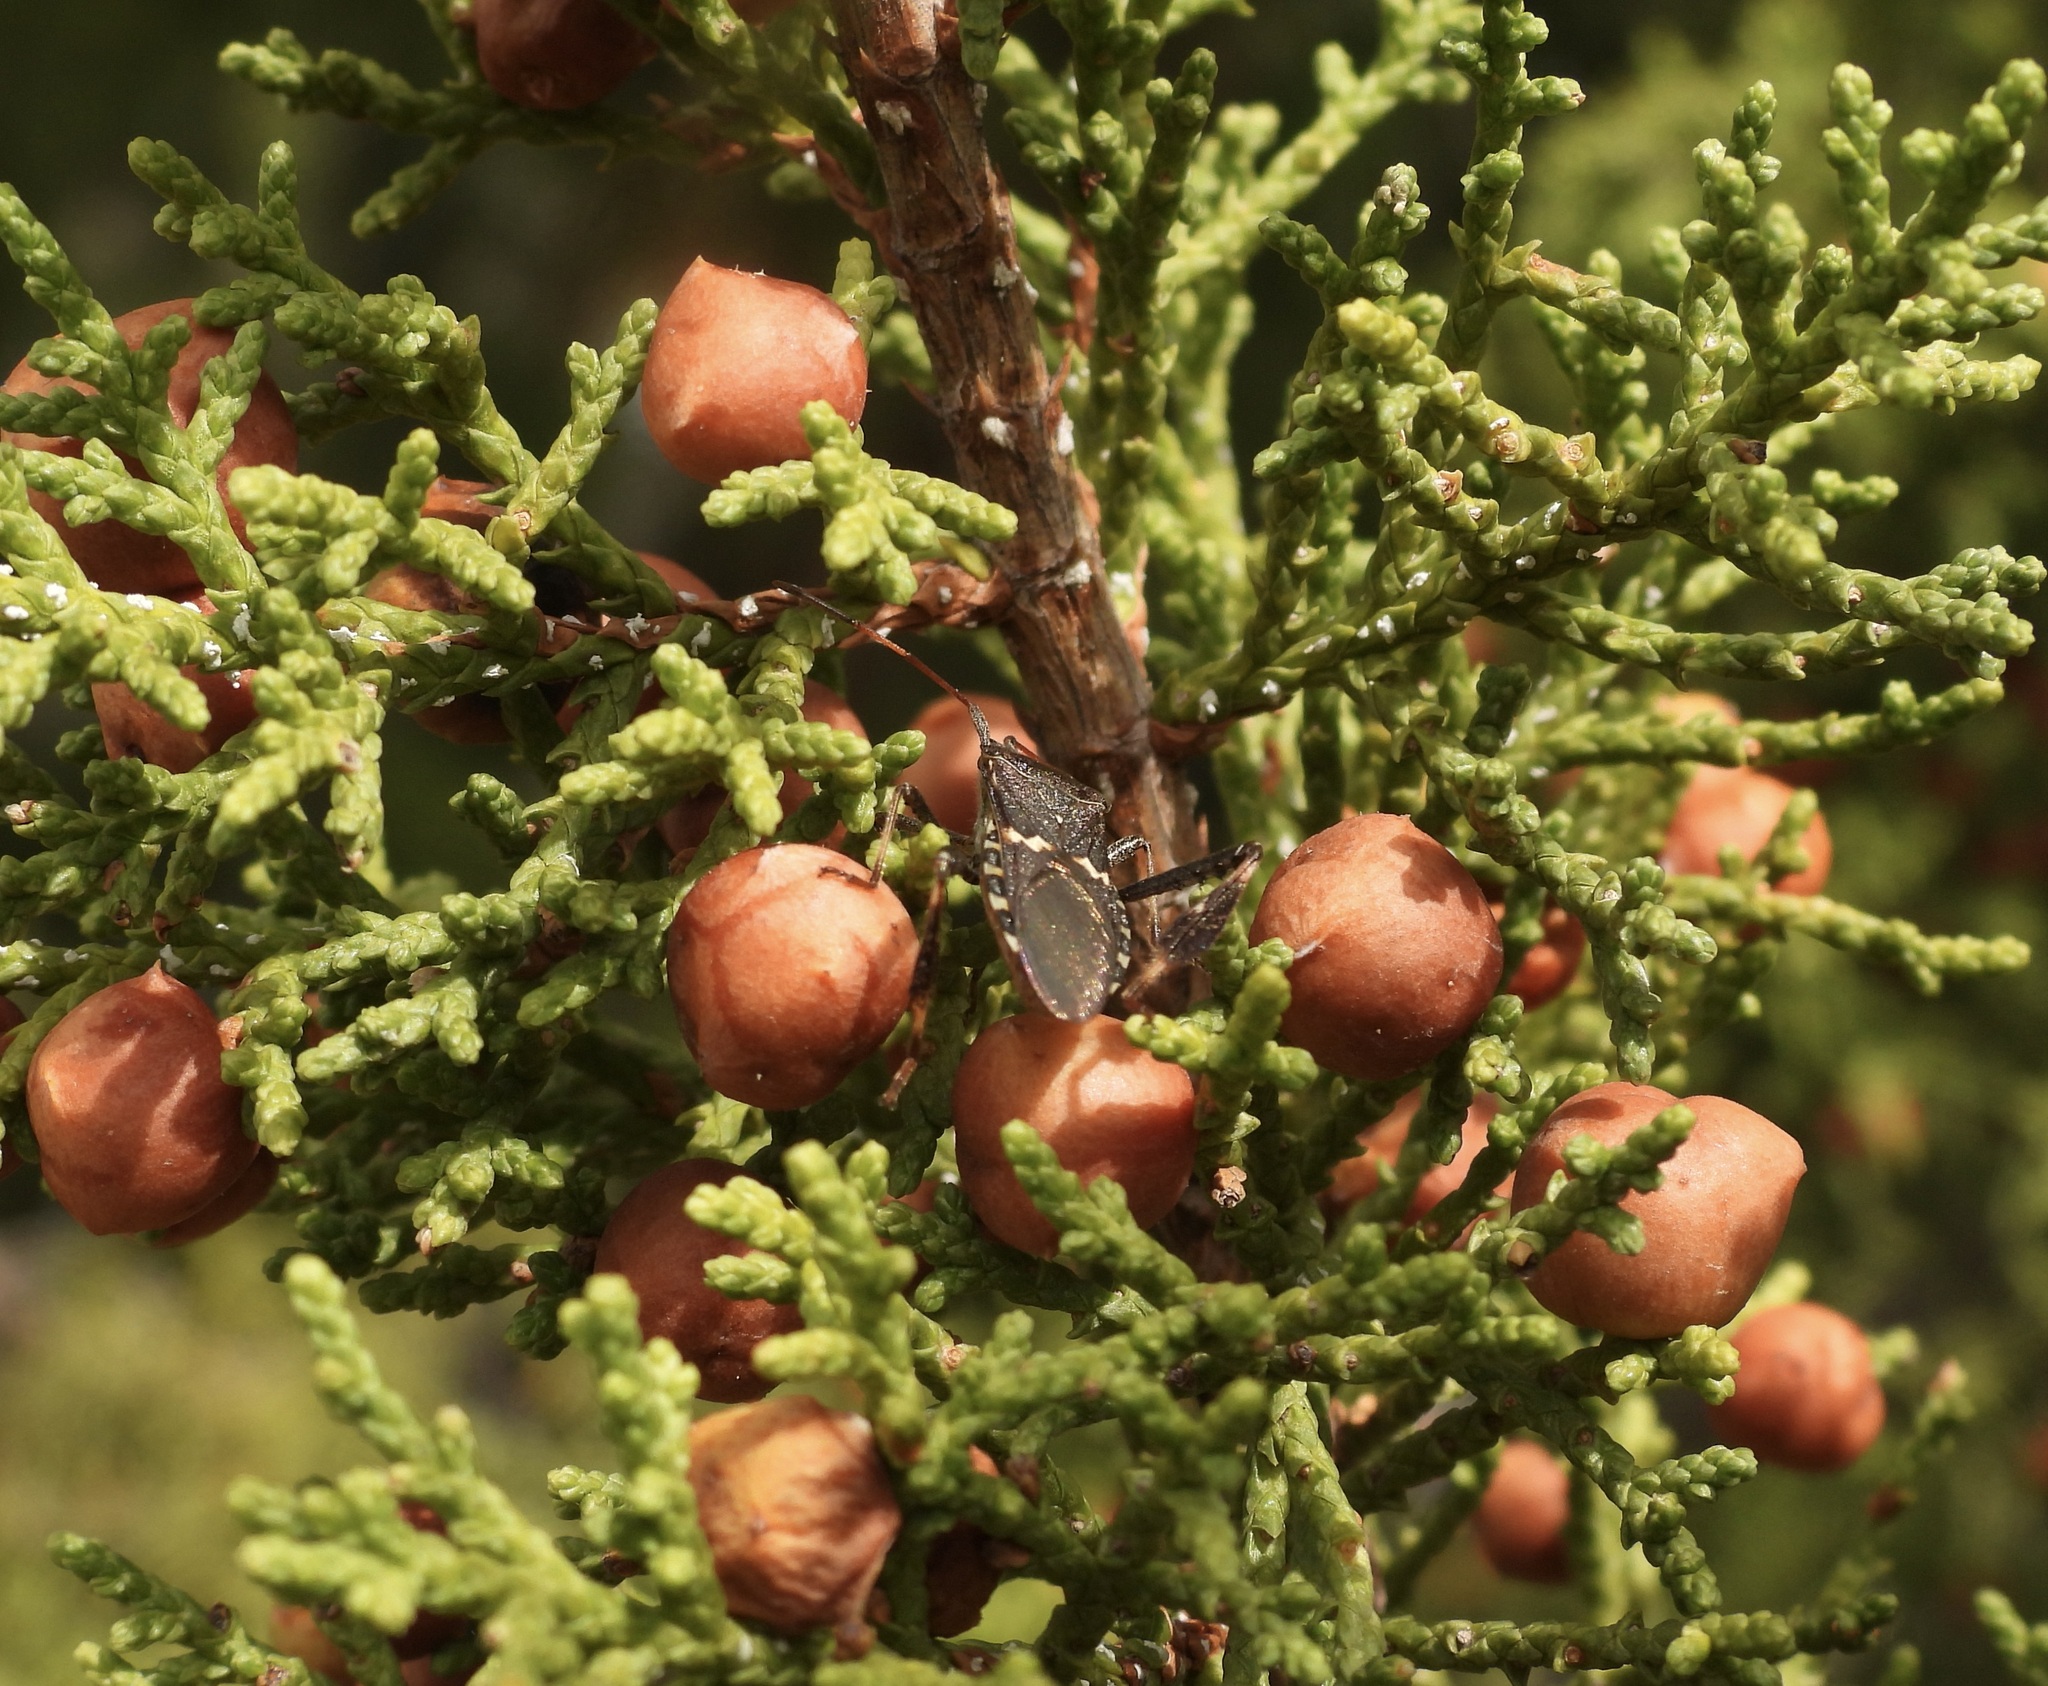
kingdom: Animalia
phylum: Arthropoda
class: Insecta
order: Hemiptera
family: Coreidae
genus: Leptoglossus
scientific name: Leptoglossus clypealis
